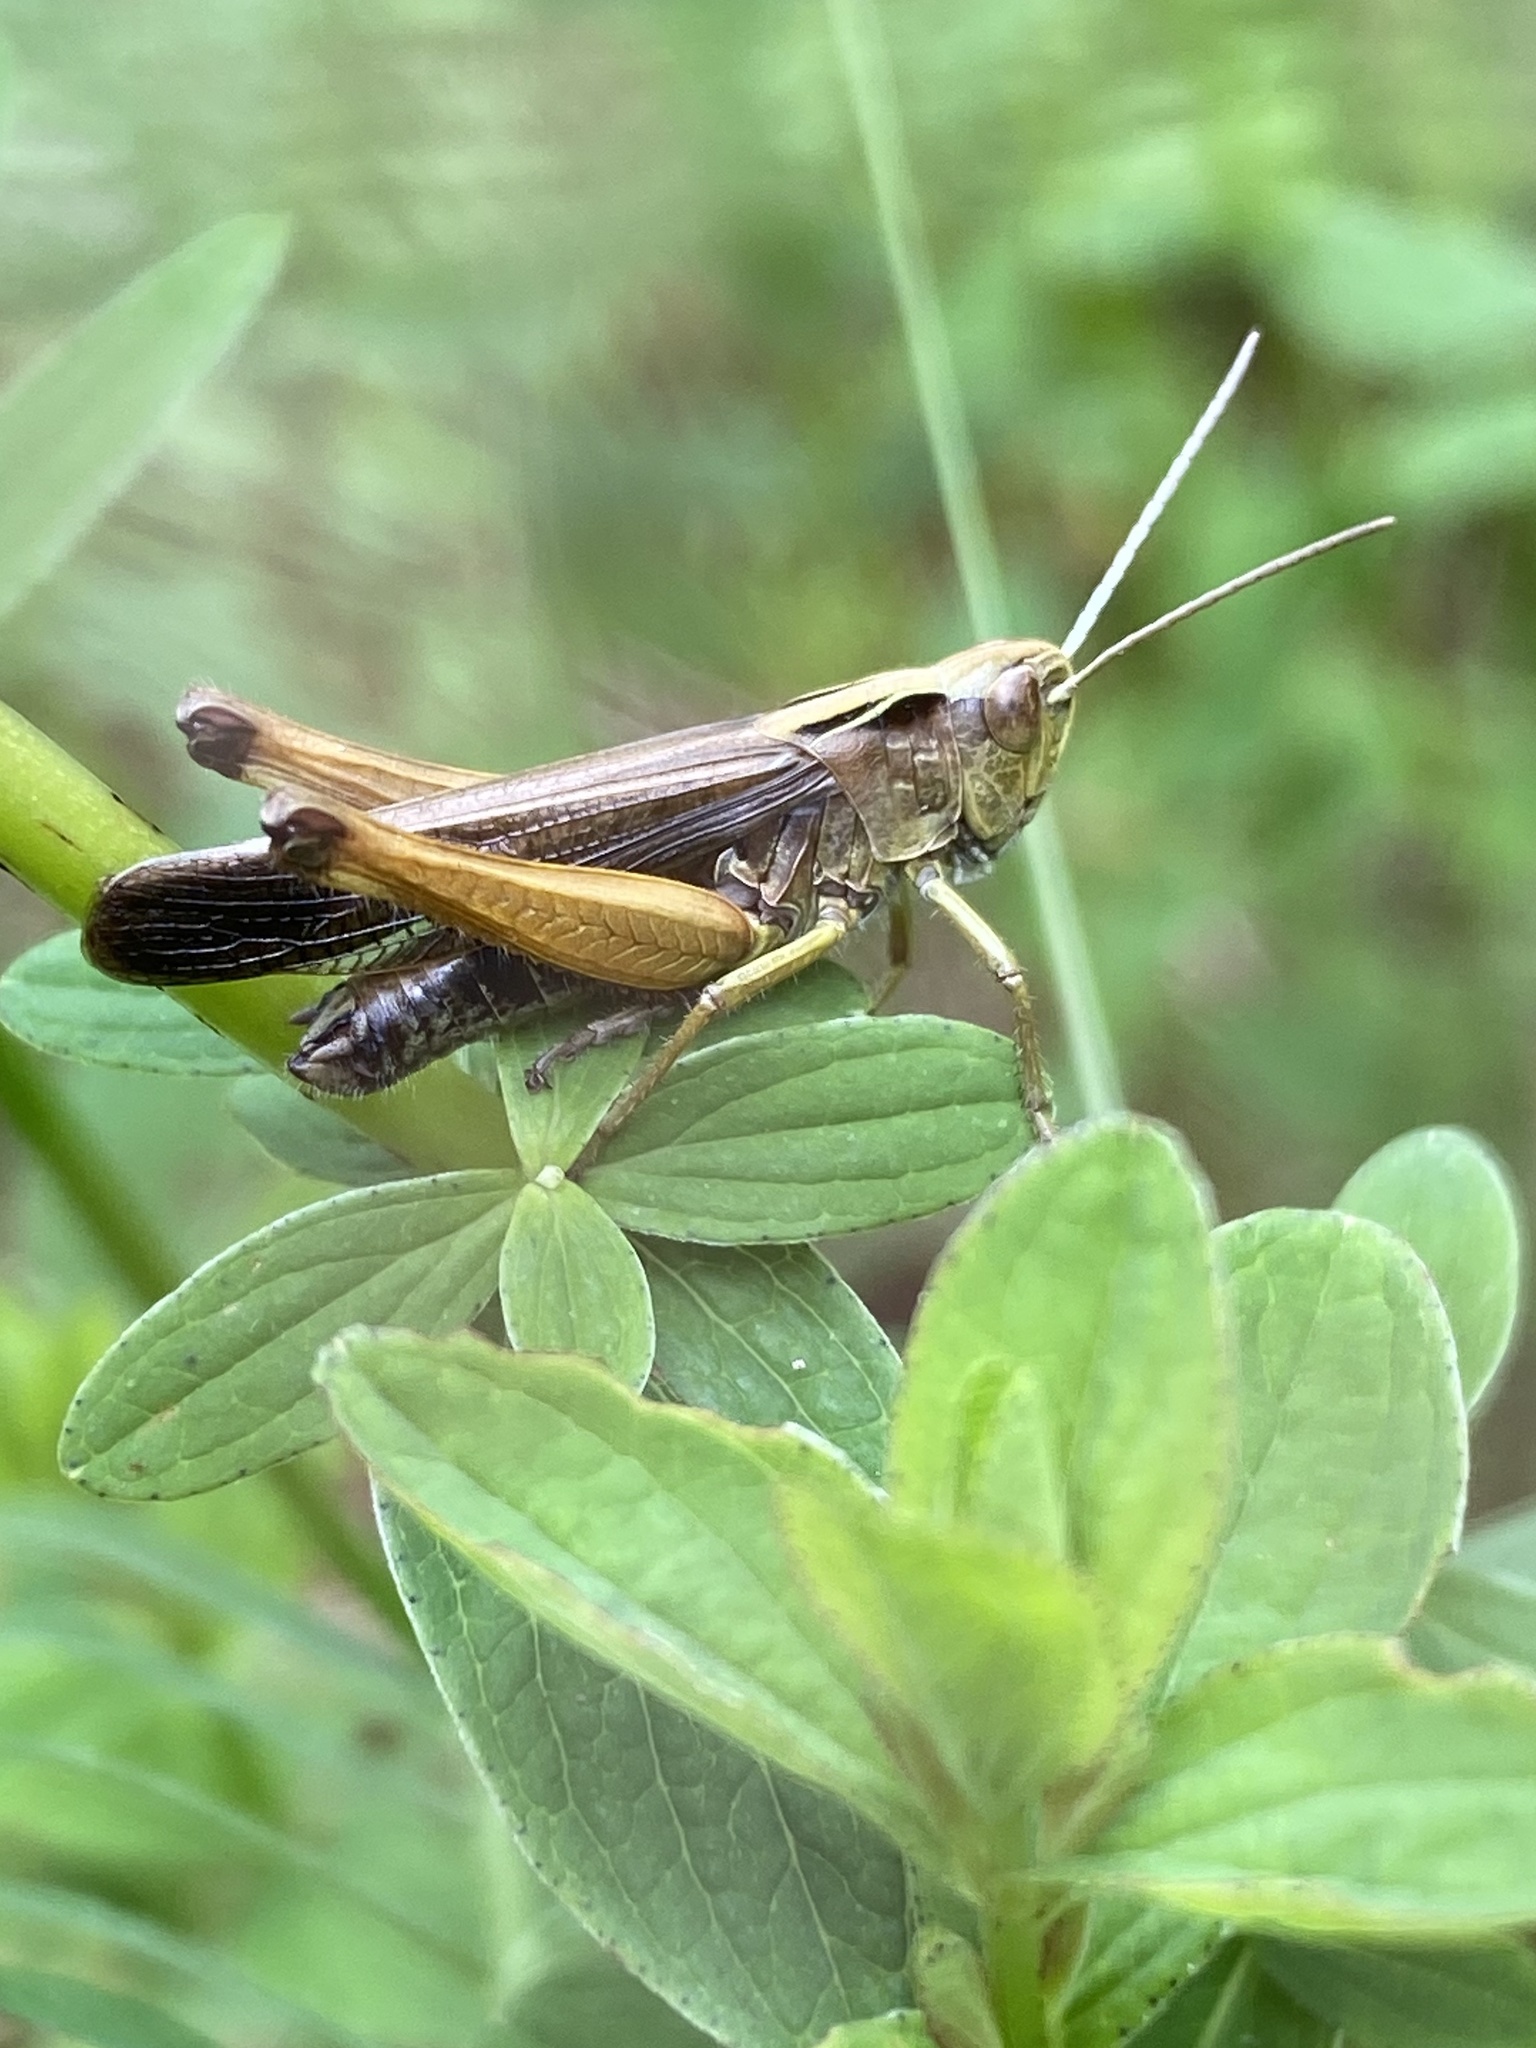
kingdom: Animalia
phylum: Arthropoda
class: Insecta
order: Orthoptera
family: Acrididae
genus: Omocestus
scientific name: Omocestus viridulus
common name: Common green grasshopper
